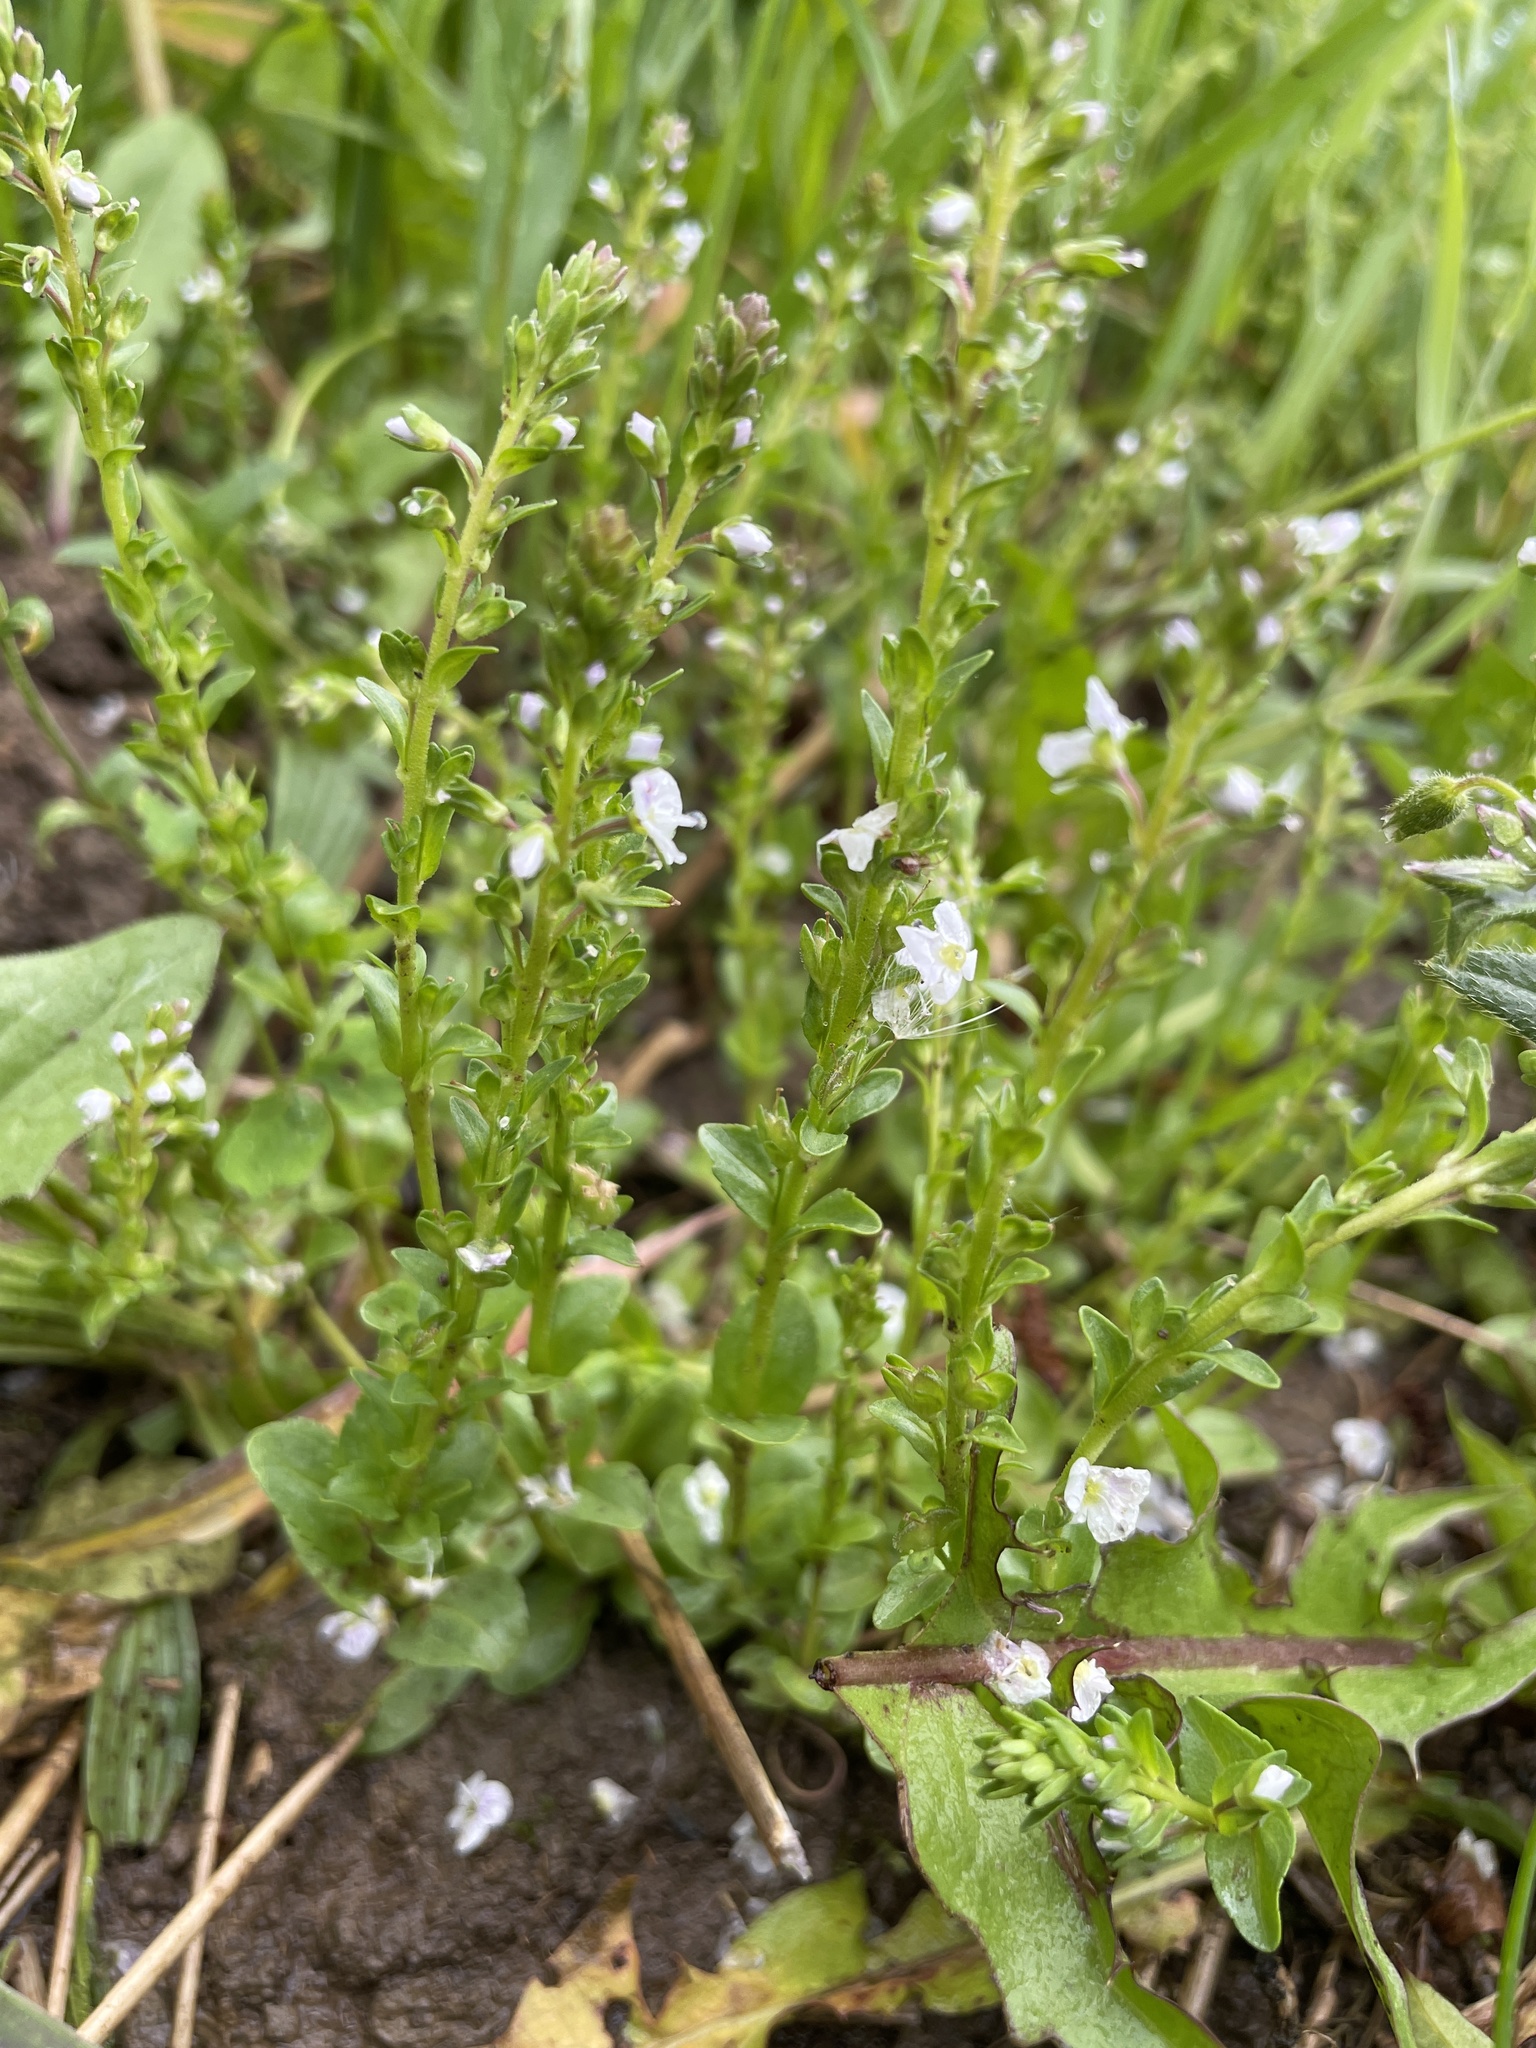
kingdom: Plantae
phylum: Tracheophyta
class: Magnoliopsida
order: Lamiales
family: Plantaginaceae
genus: Veronica
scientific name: Veronica serpyllifolia
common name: Thyme-leaved speedwell
